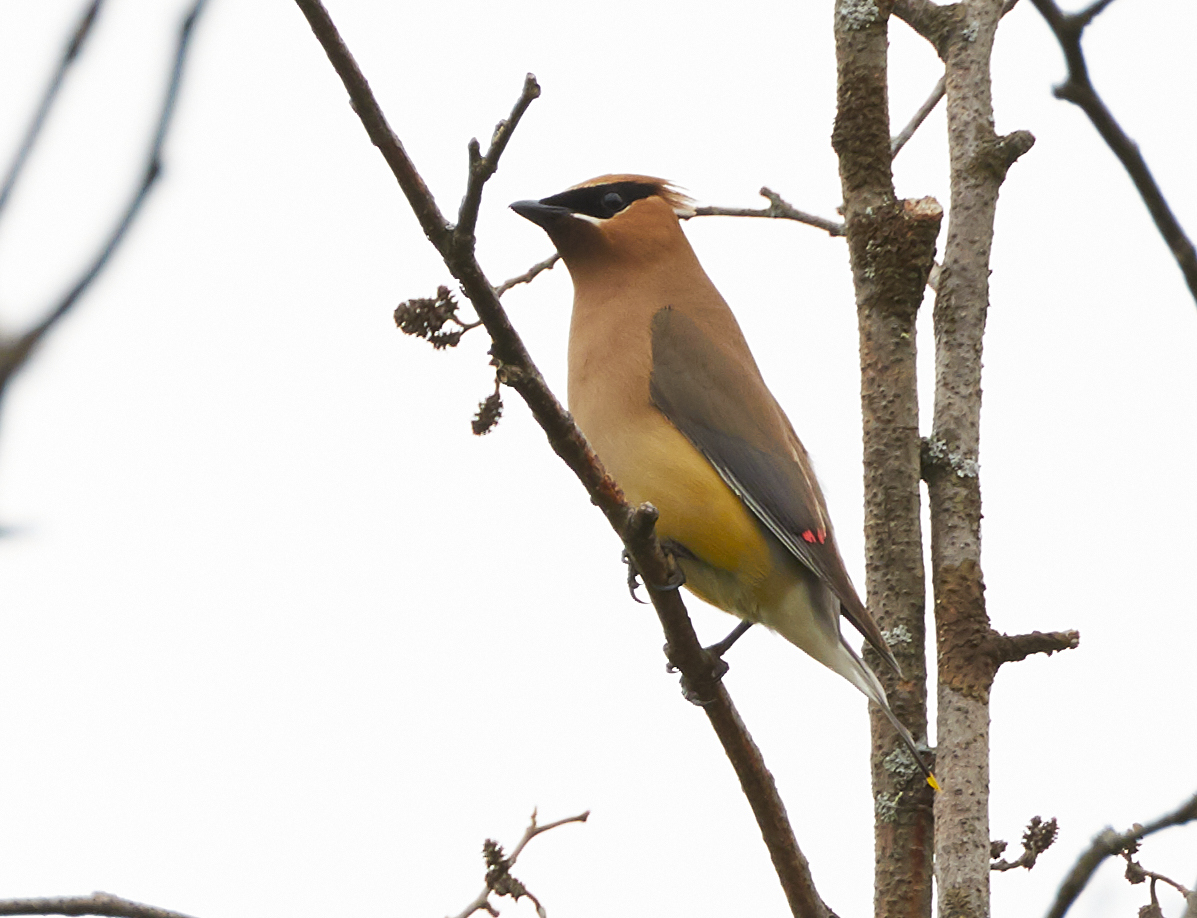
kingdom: Animalia
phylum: Chordata
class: Aves
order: Passeriformes
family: Bombycillidae
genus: Bombycilla
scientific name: Bombycilla cedrorum
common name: Cedar waxwing
